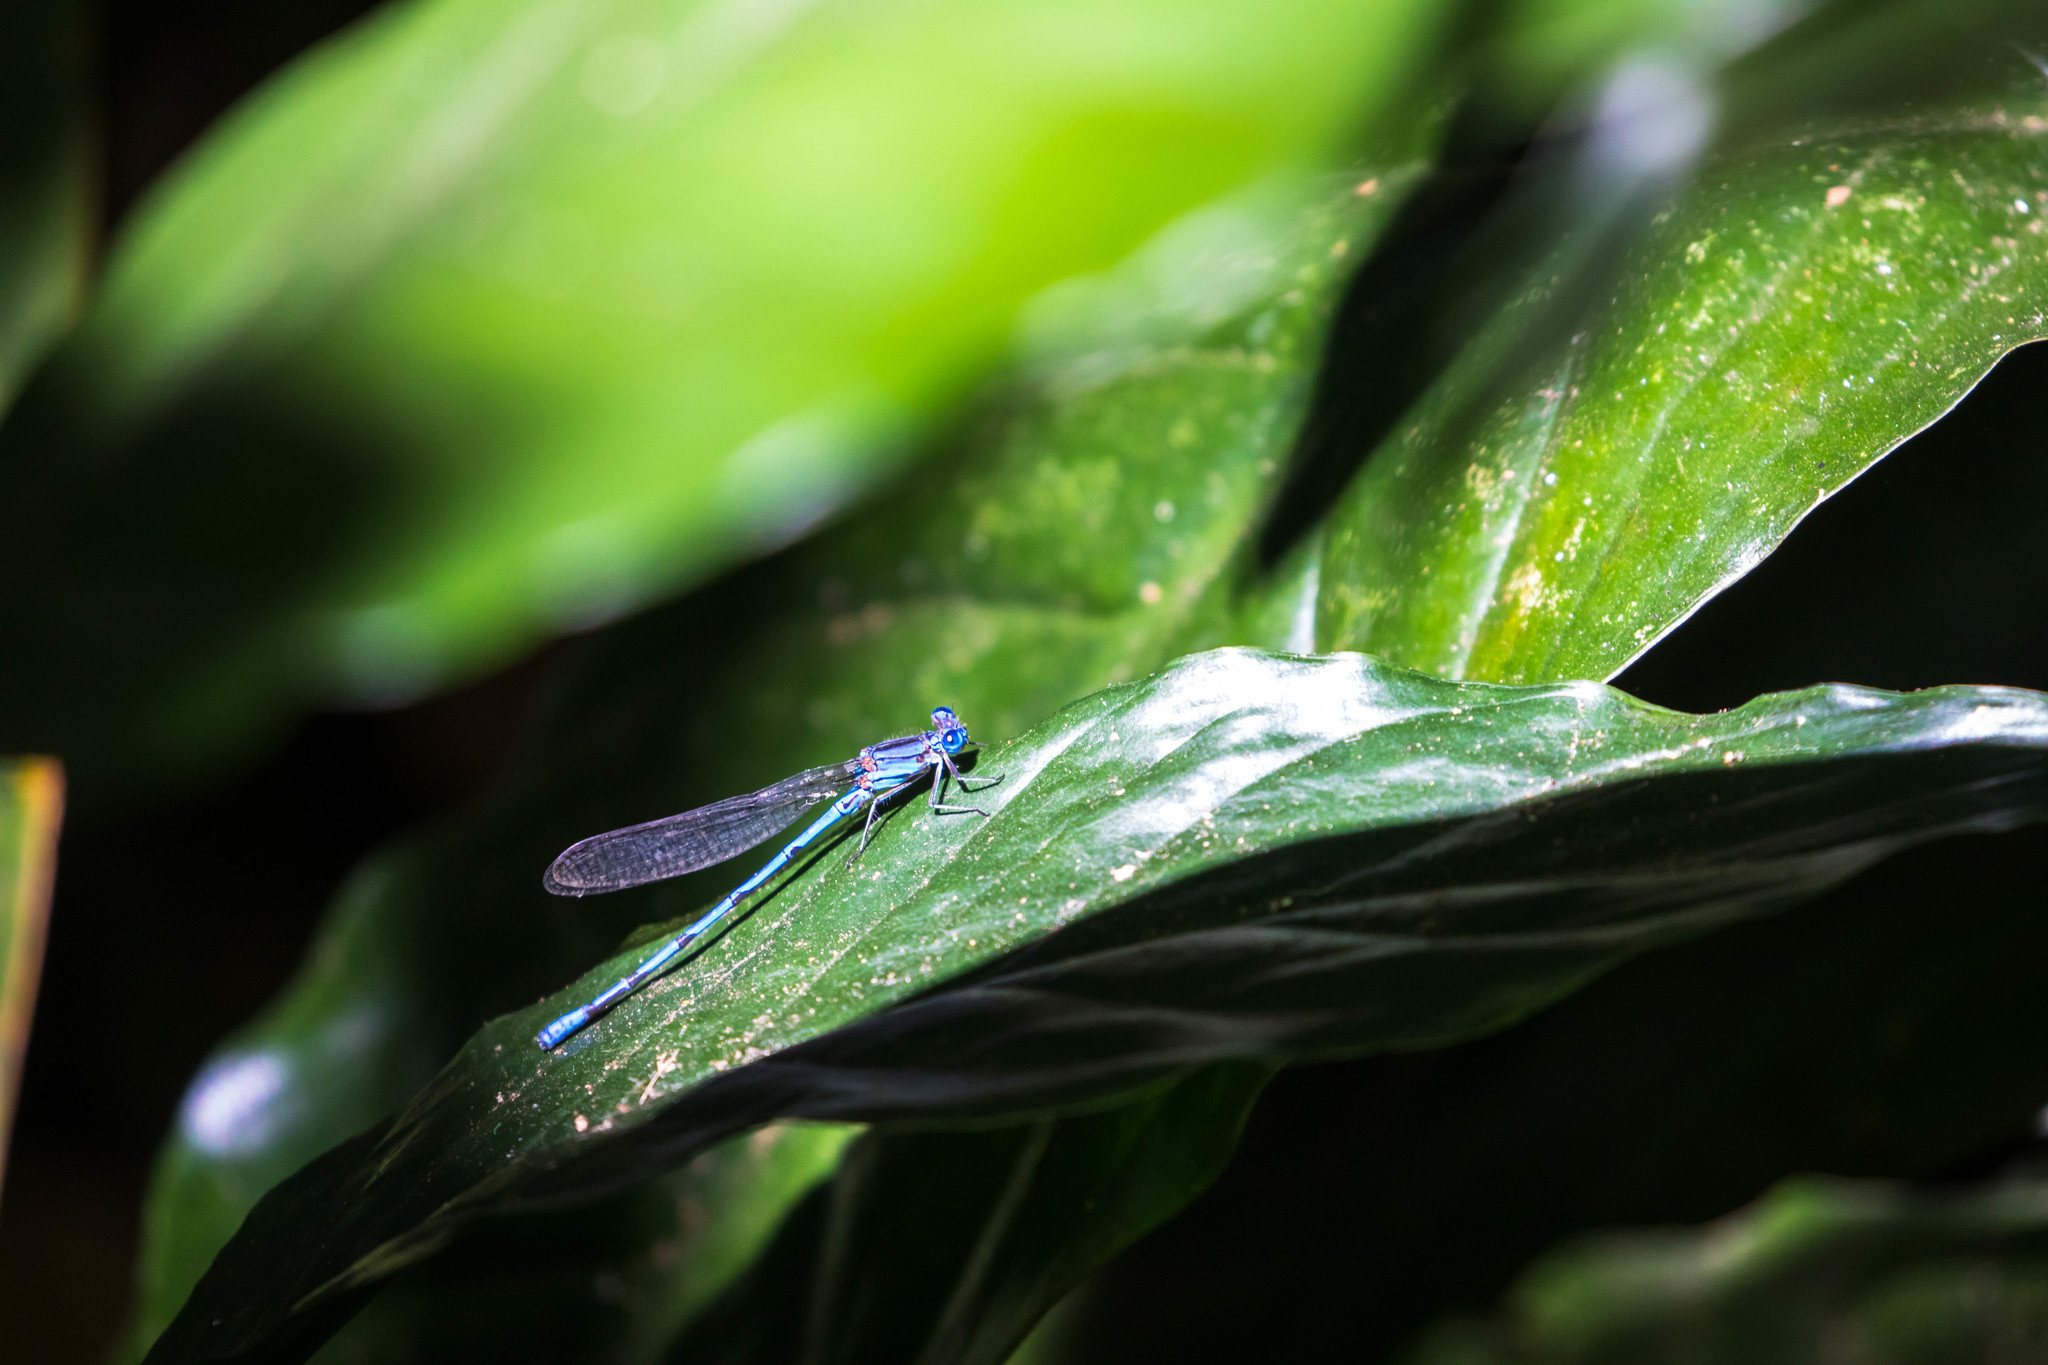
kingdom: Animalia
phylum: Arthropoda
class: Insecta
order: Odonata
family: Coenagrionidae
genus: Argia
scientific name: Argia anceps
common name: Cerulean dancer
